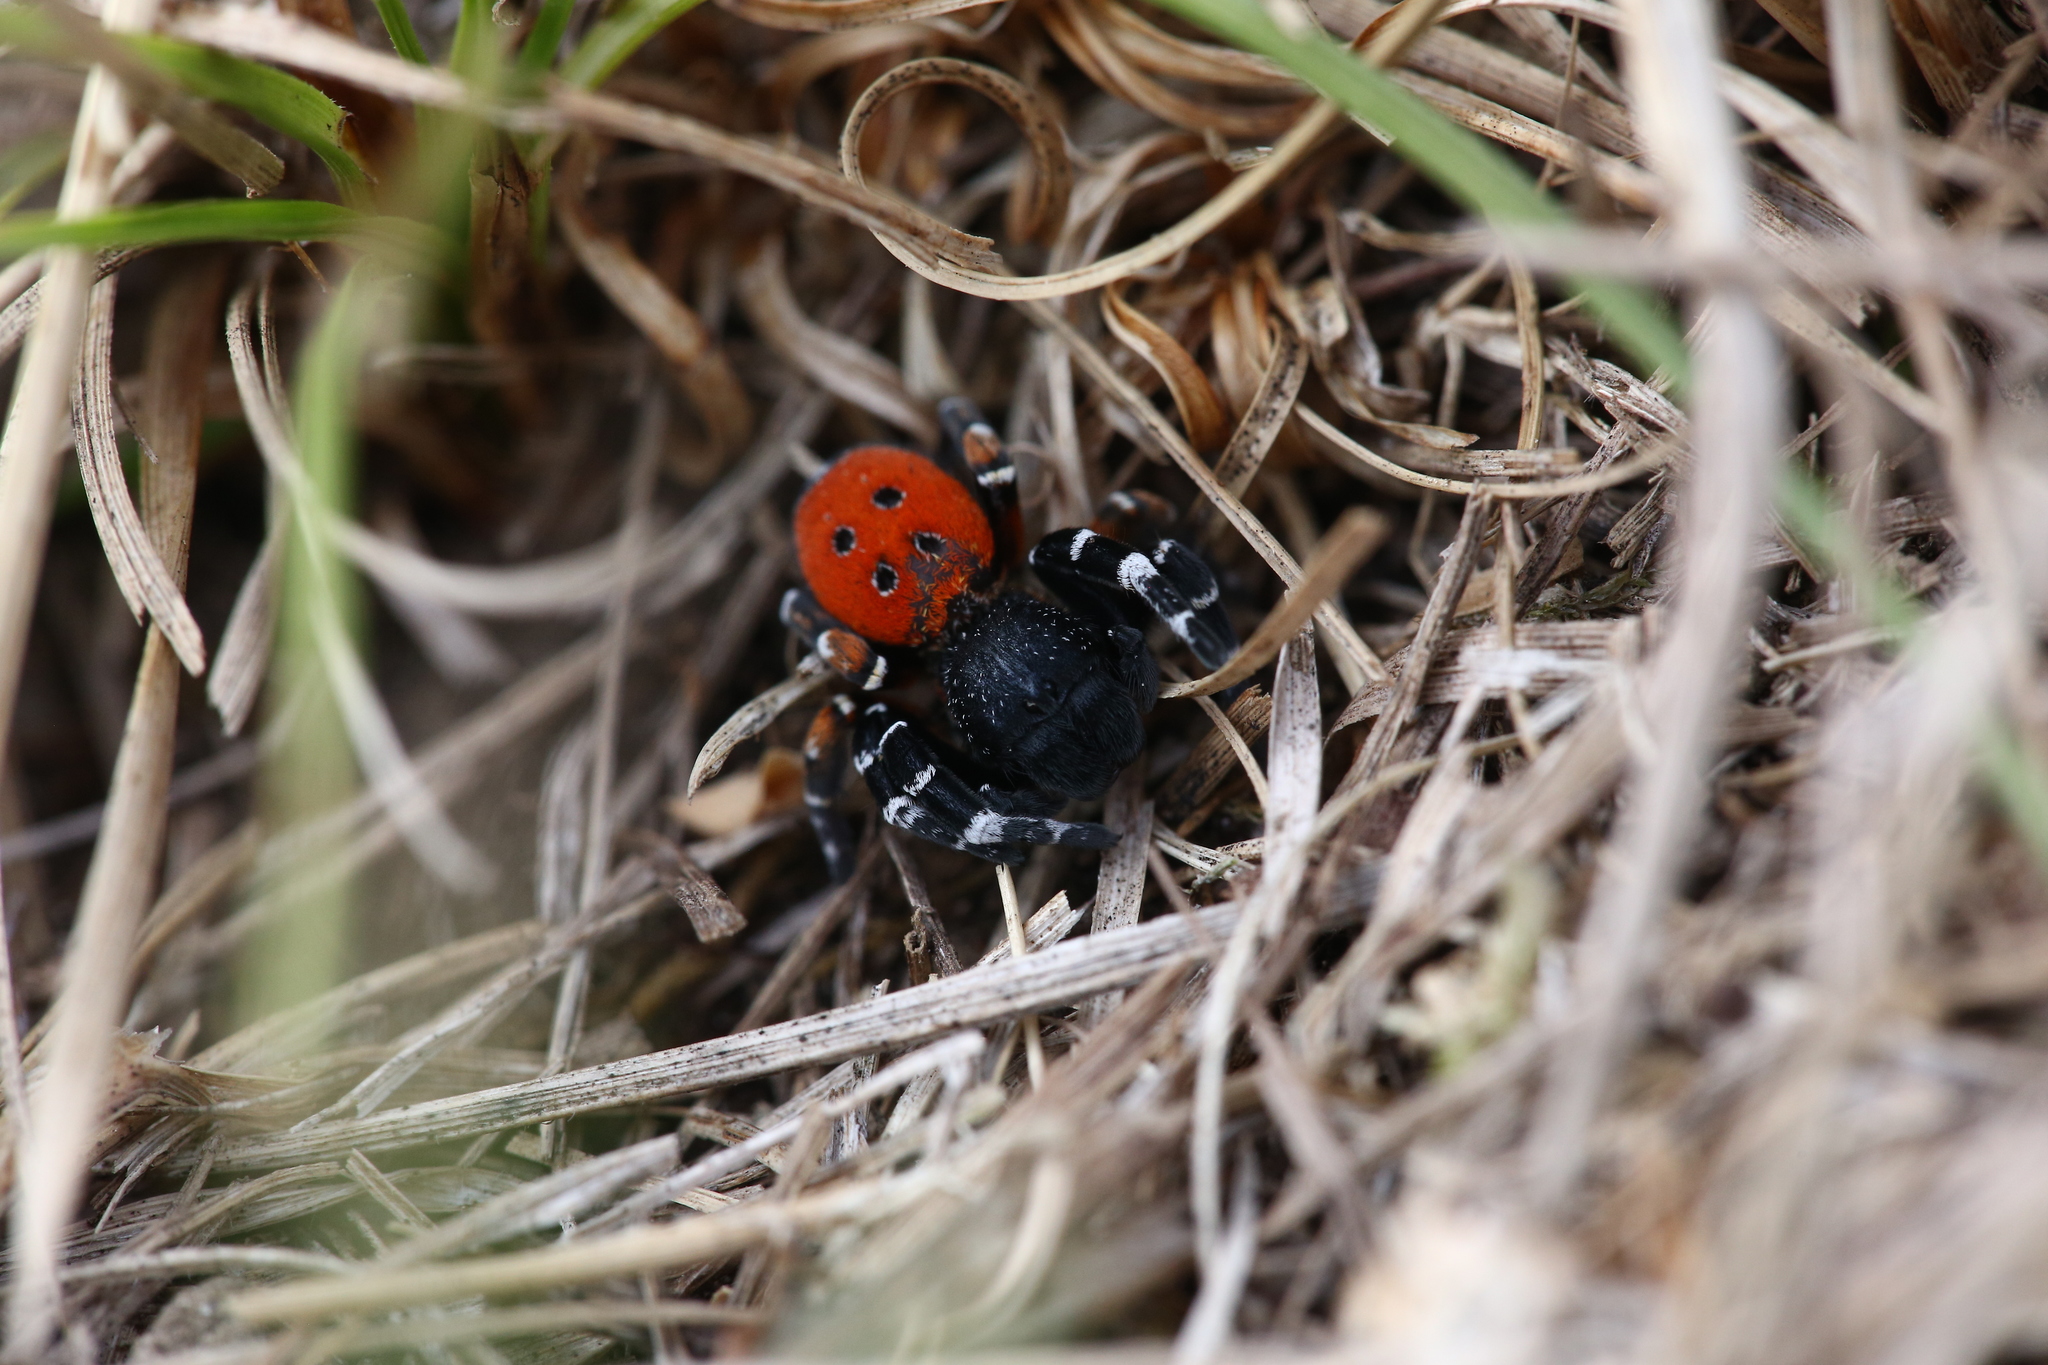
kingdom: Animalia
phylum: Arthropoda
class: Arachnida
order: Araneae
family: Eresidae
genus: Eresus
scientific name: Eresus kollari
